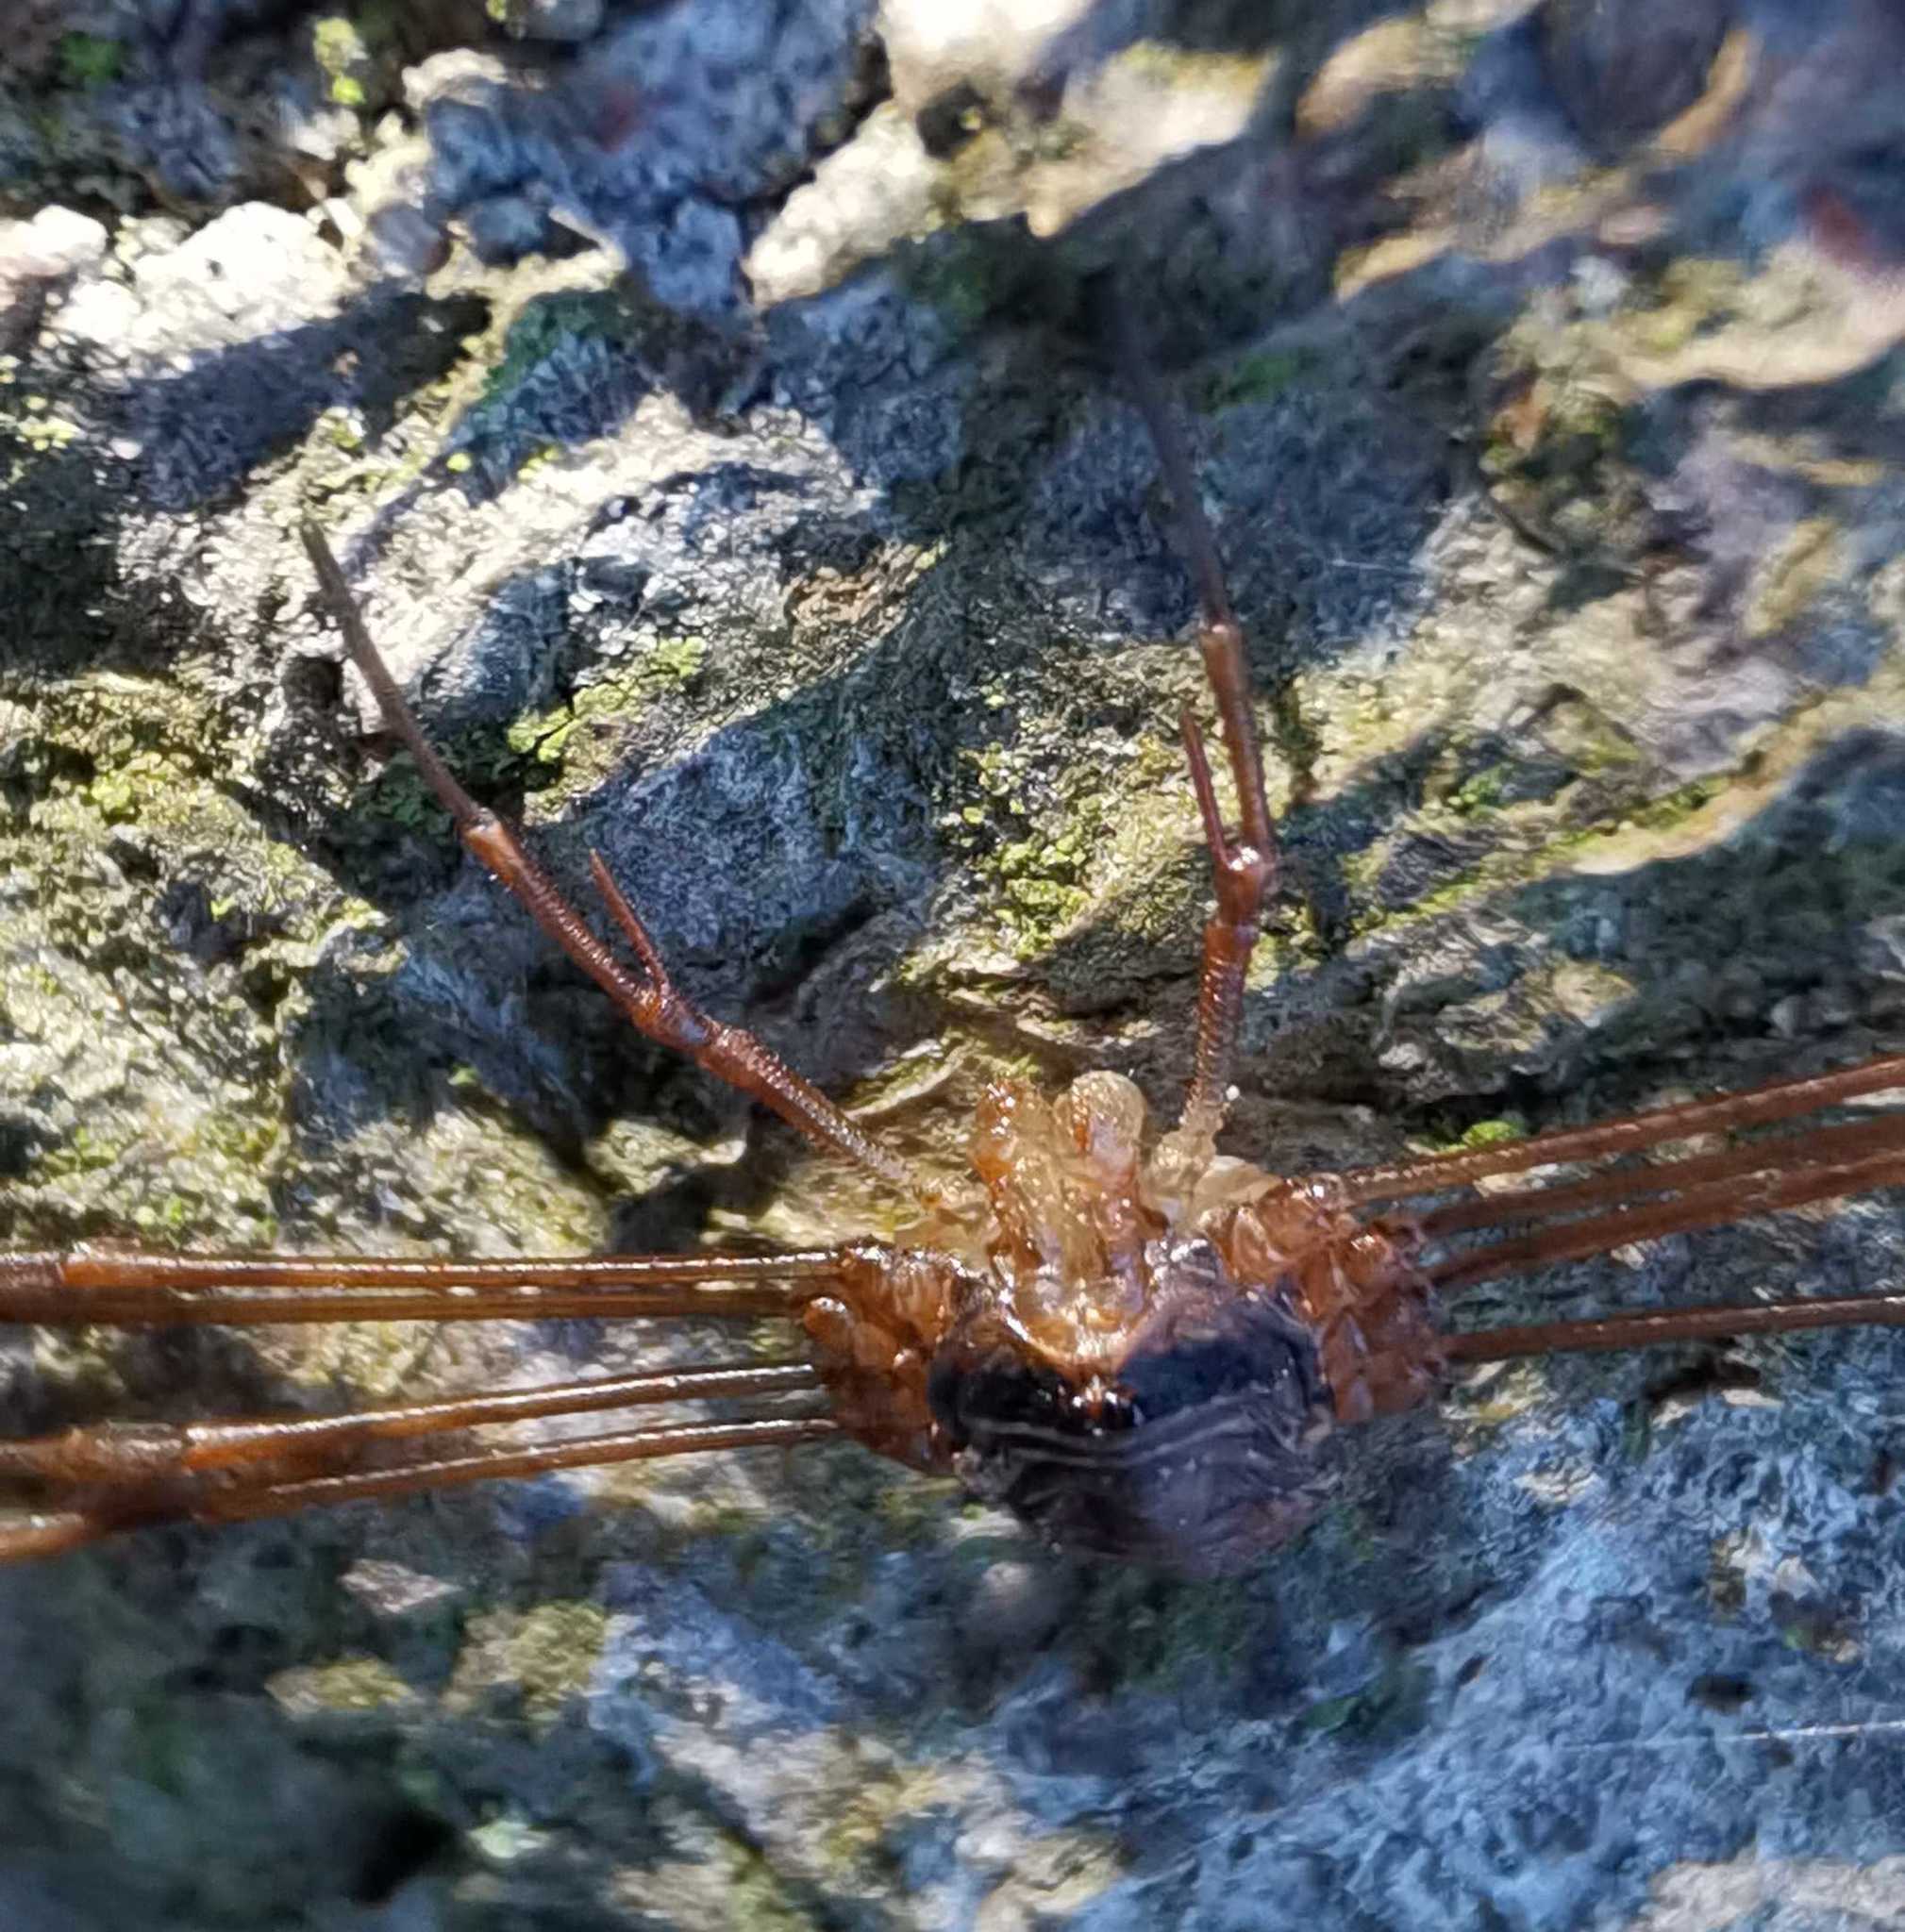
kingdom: Animalia
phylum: Arthropoda
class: Arachnida
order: Opiliones
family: Phalangiidae
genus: Dicranopalpus
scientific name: Dicranopalpus ramosus
